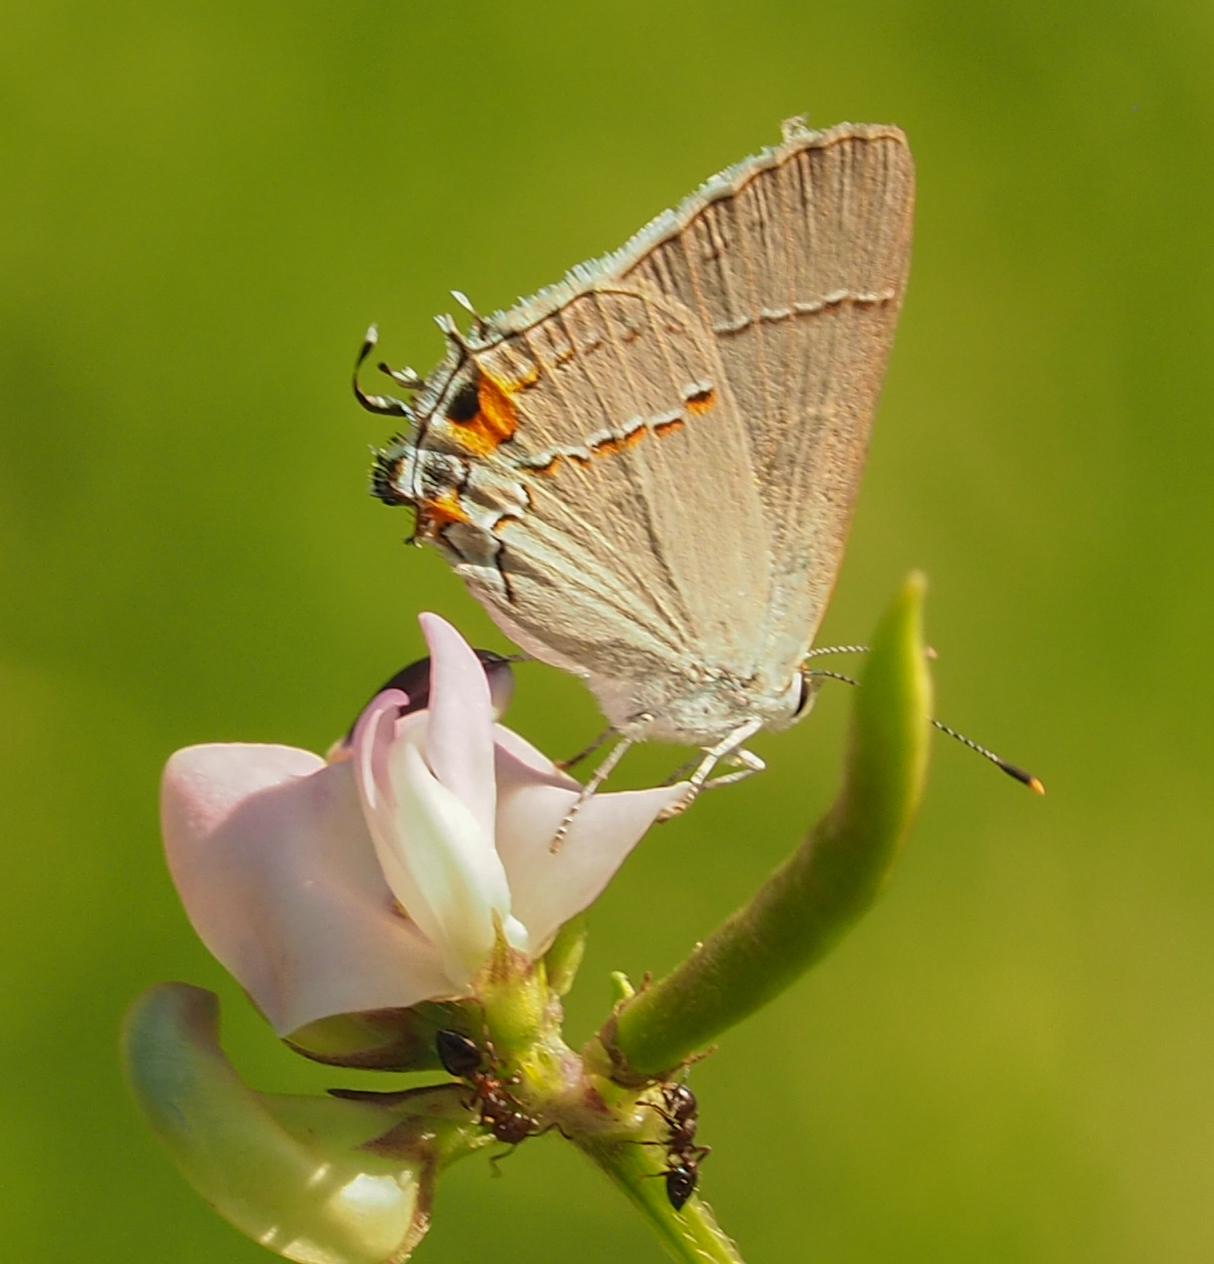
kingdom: Animalia
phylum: Arthropoda
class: Insecta
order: Lepidoptera
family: Lycaenidae
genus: Strymon
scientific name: Strymon melinus
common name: Gray hairstreak
